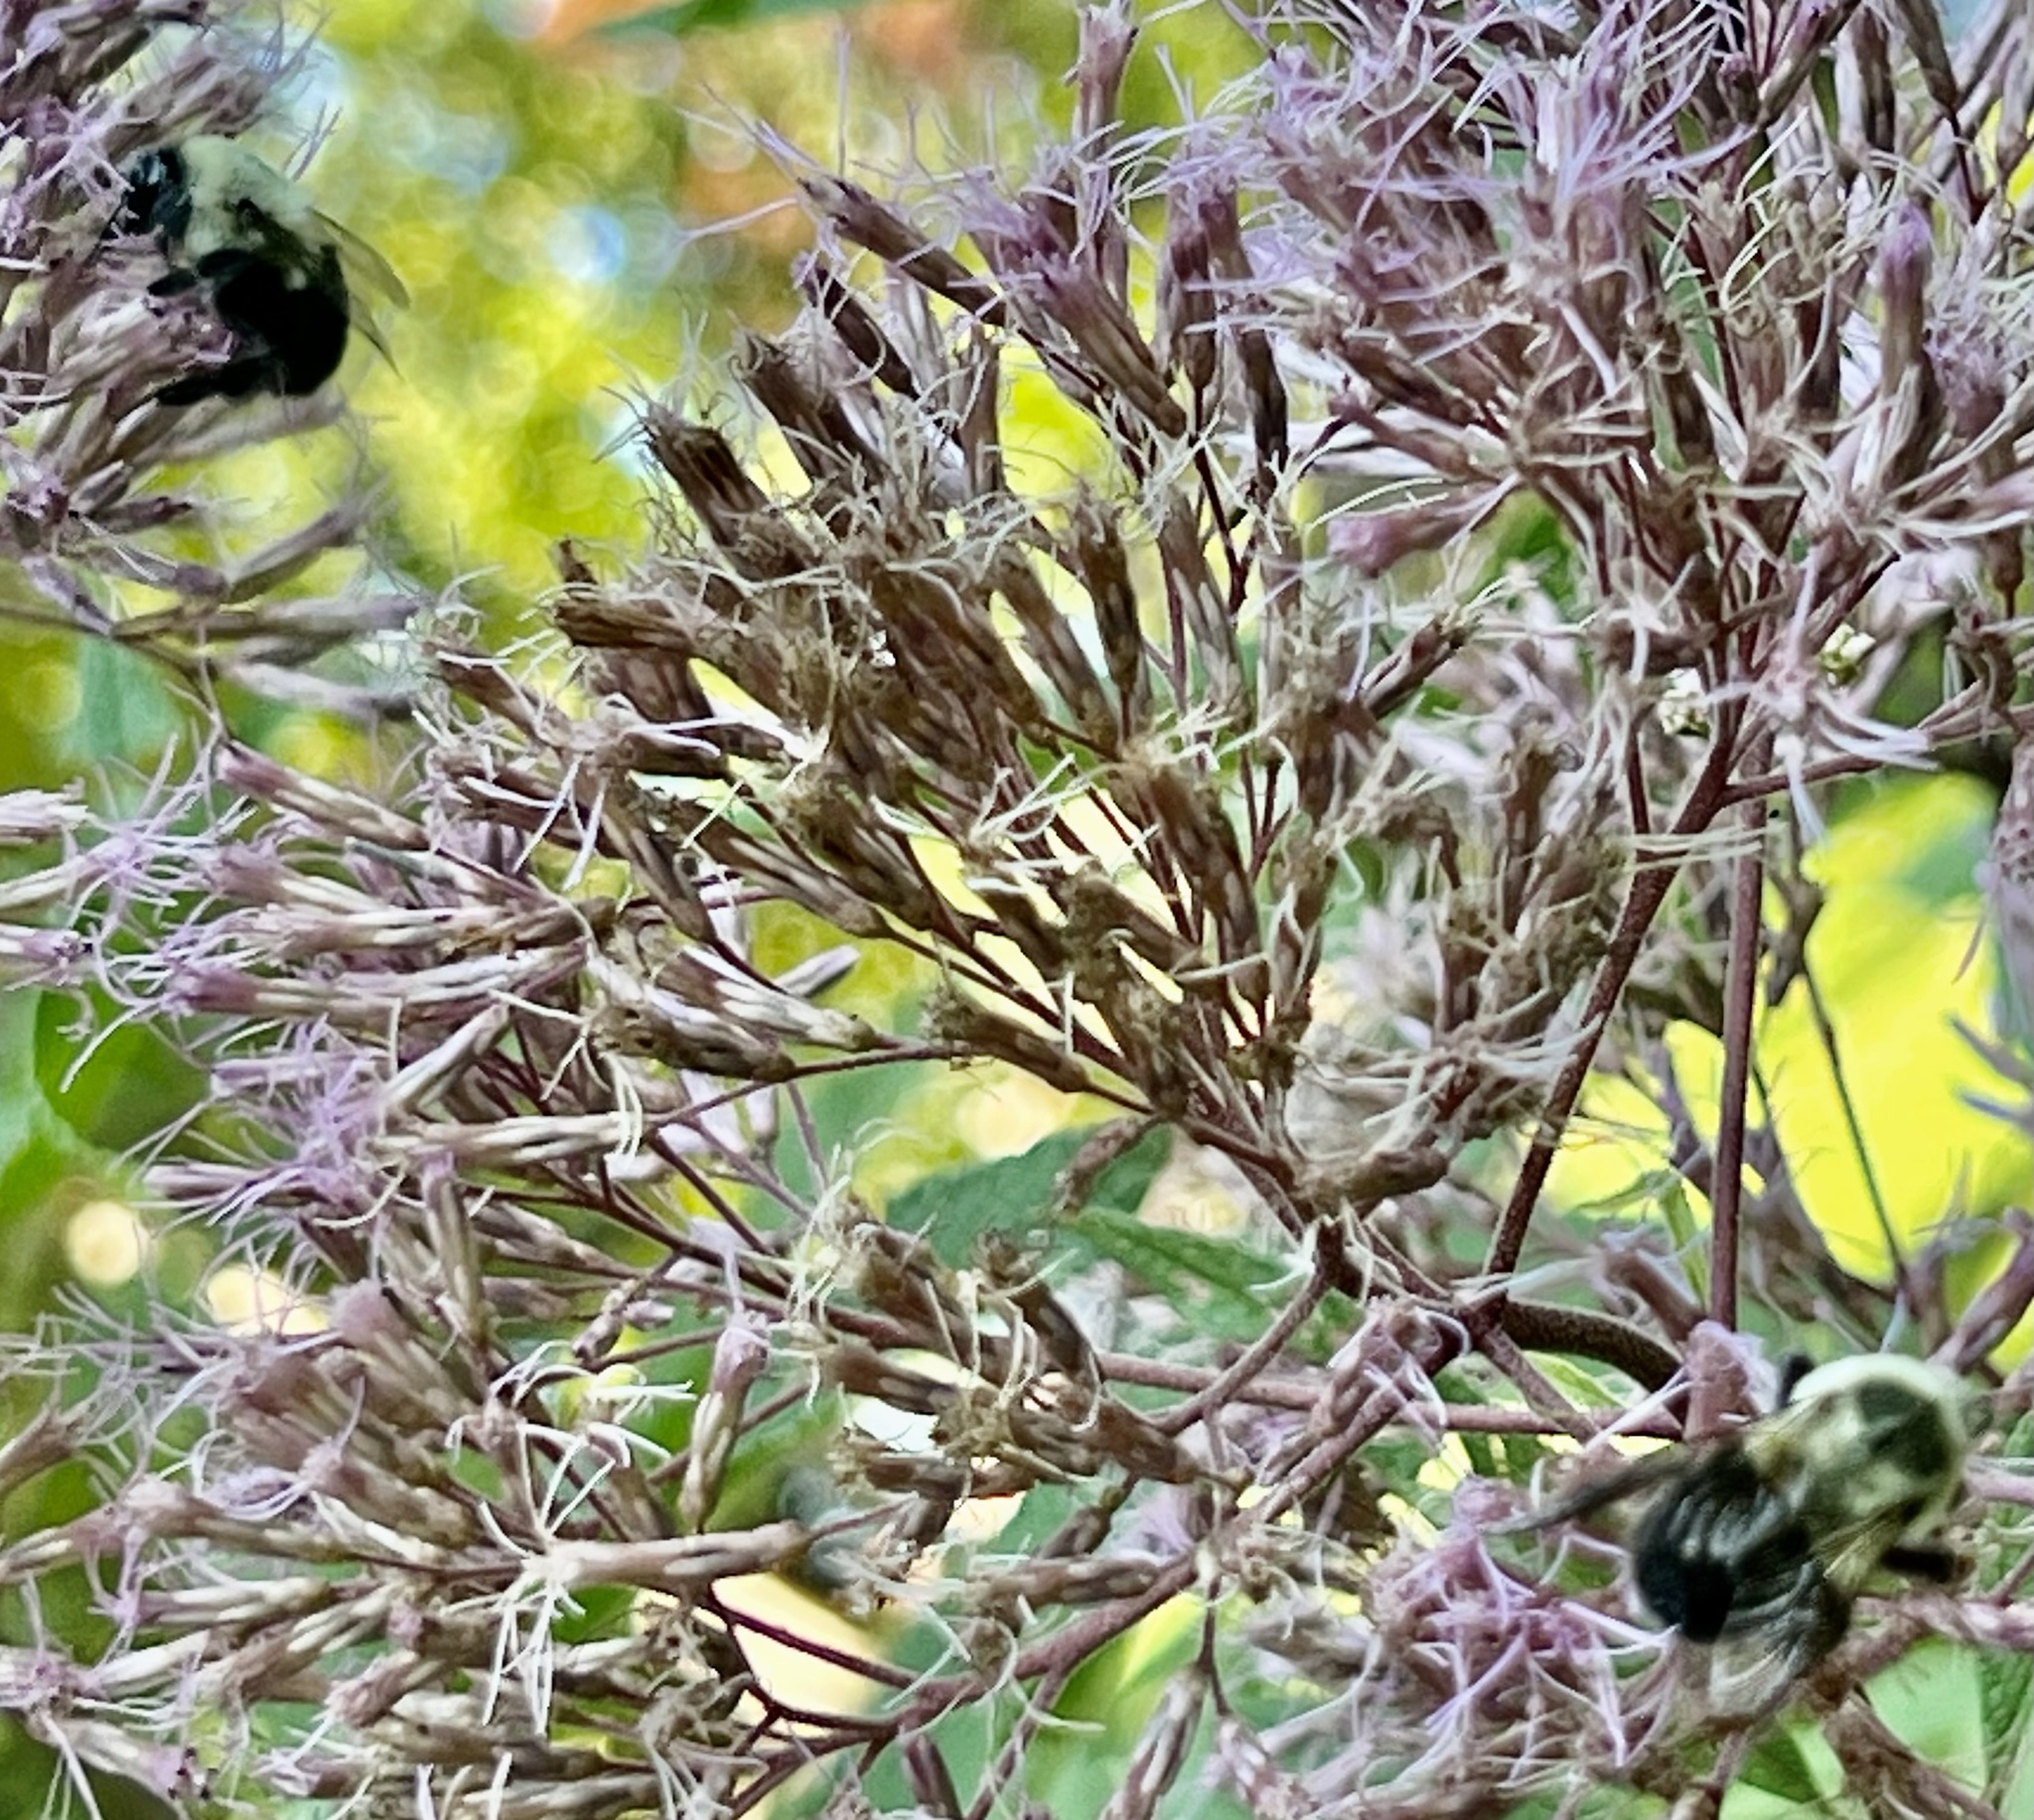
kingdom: Animalia
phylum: Arthropoda
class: Insecta
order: Hymenoptera
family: Apidae
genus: Bombus
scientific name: Bombus impatiens
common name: Common eastern bumble bee
